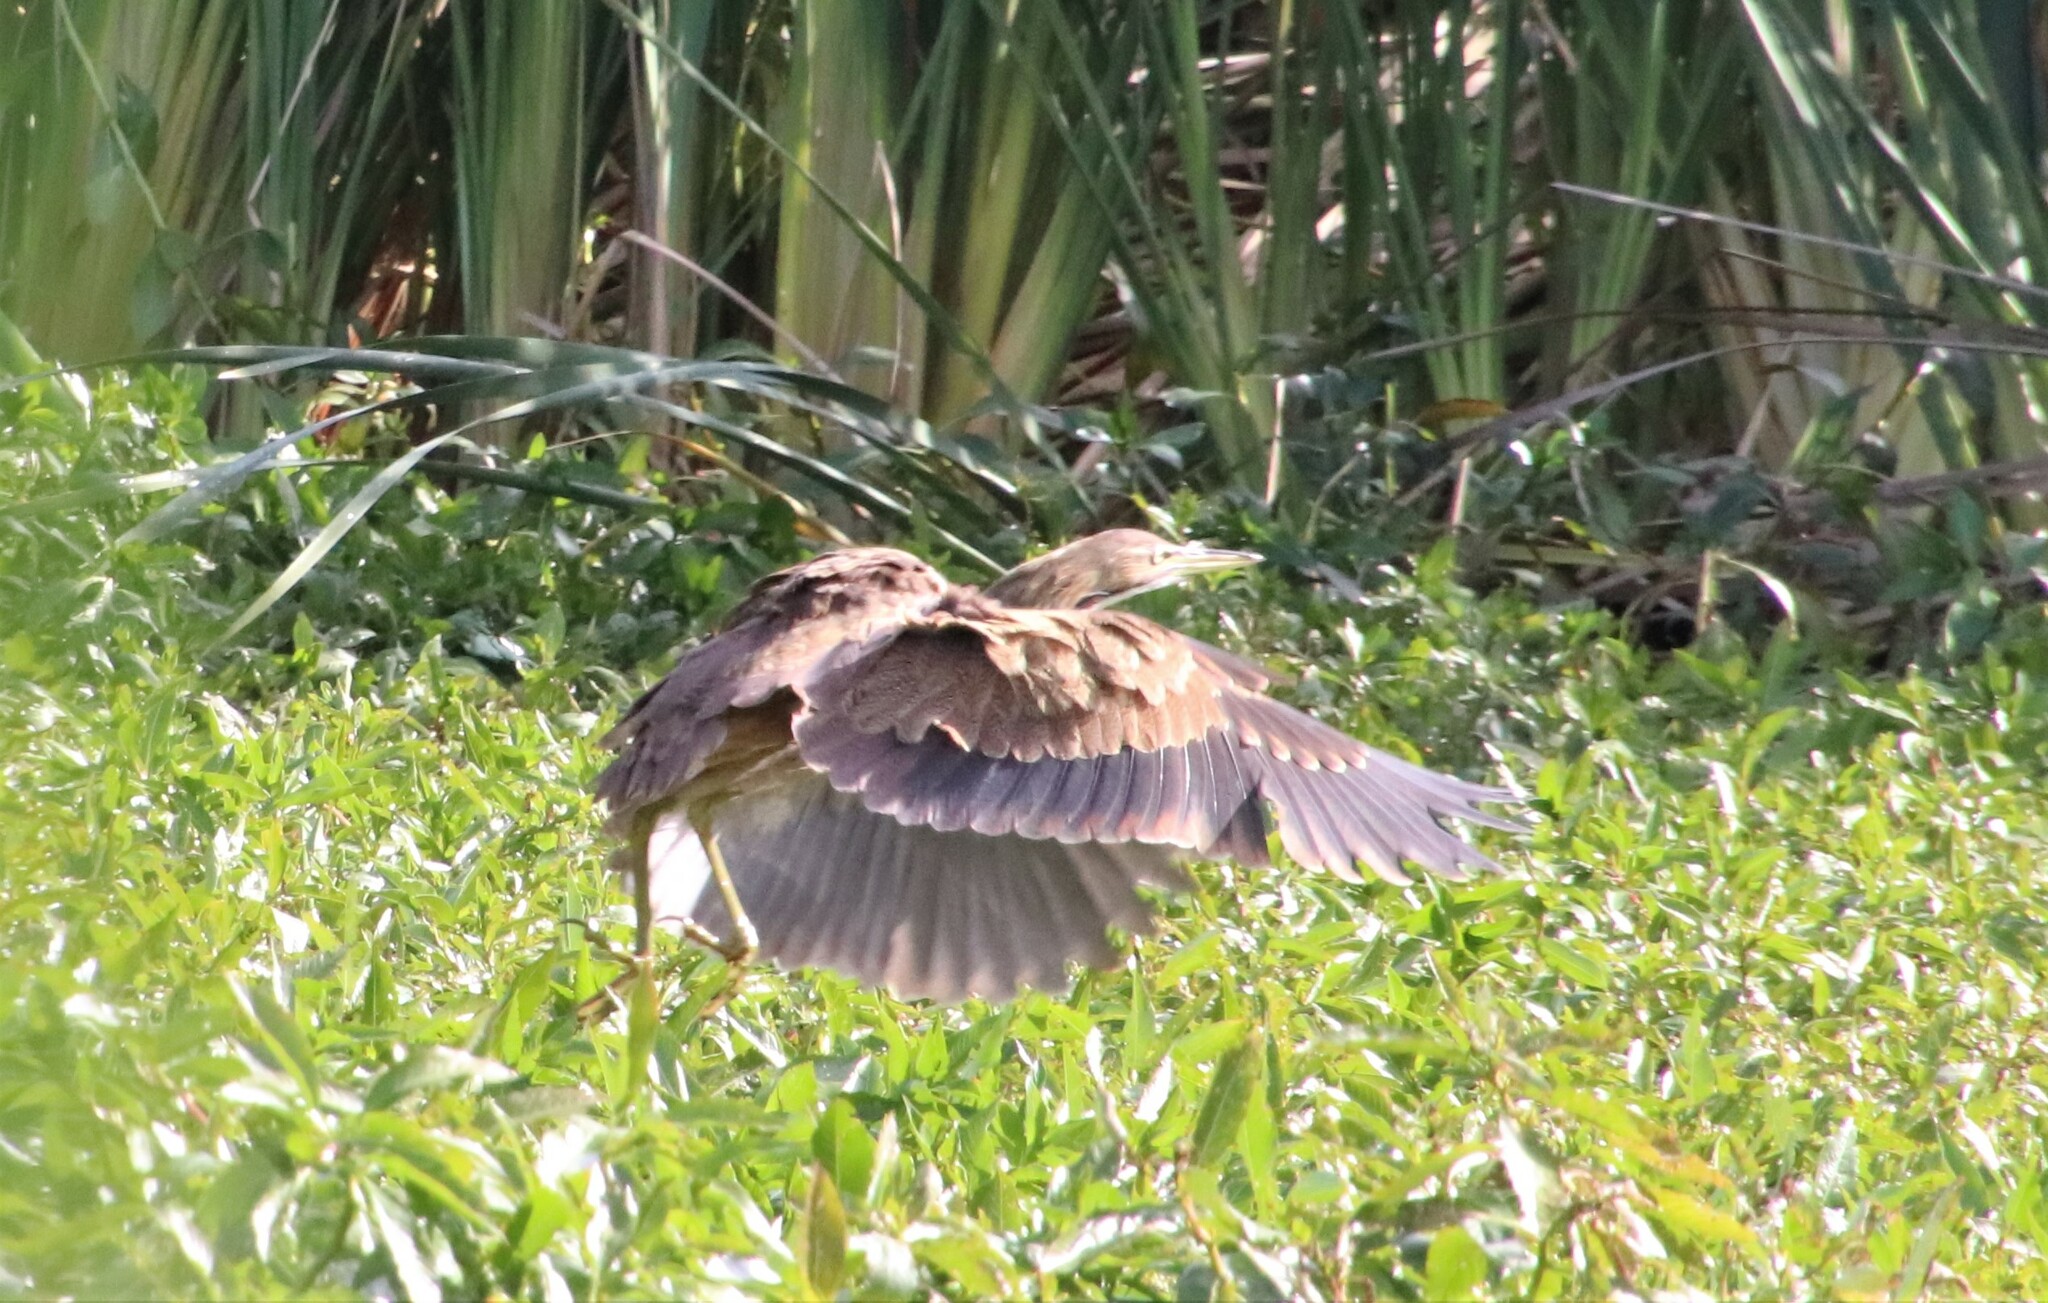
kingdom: Animalia
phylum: Chordata
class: Aves
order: Pelecaniformes
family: Ardeidae
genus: Botaurus
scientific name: Botaurus lentiginosus
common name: American bittern
